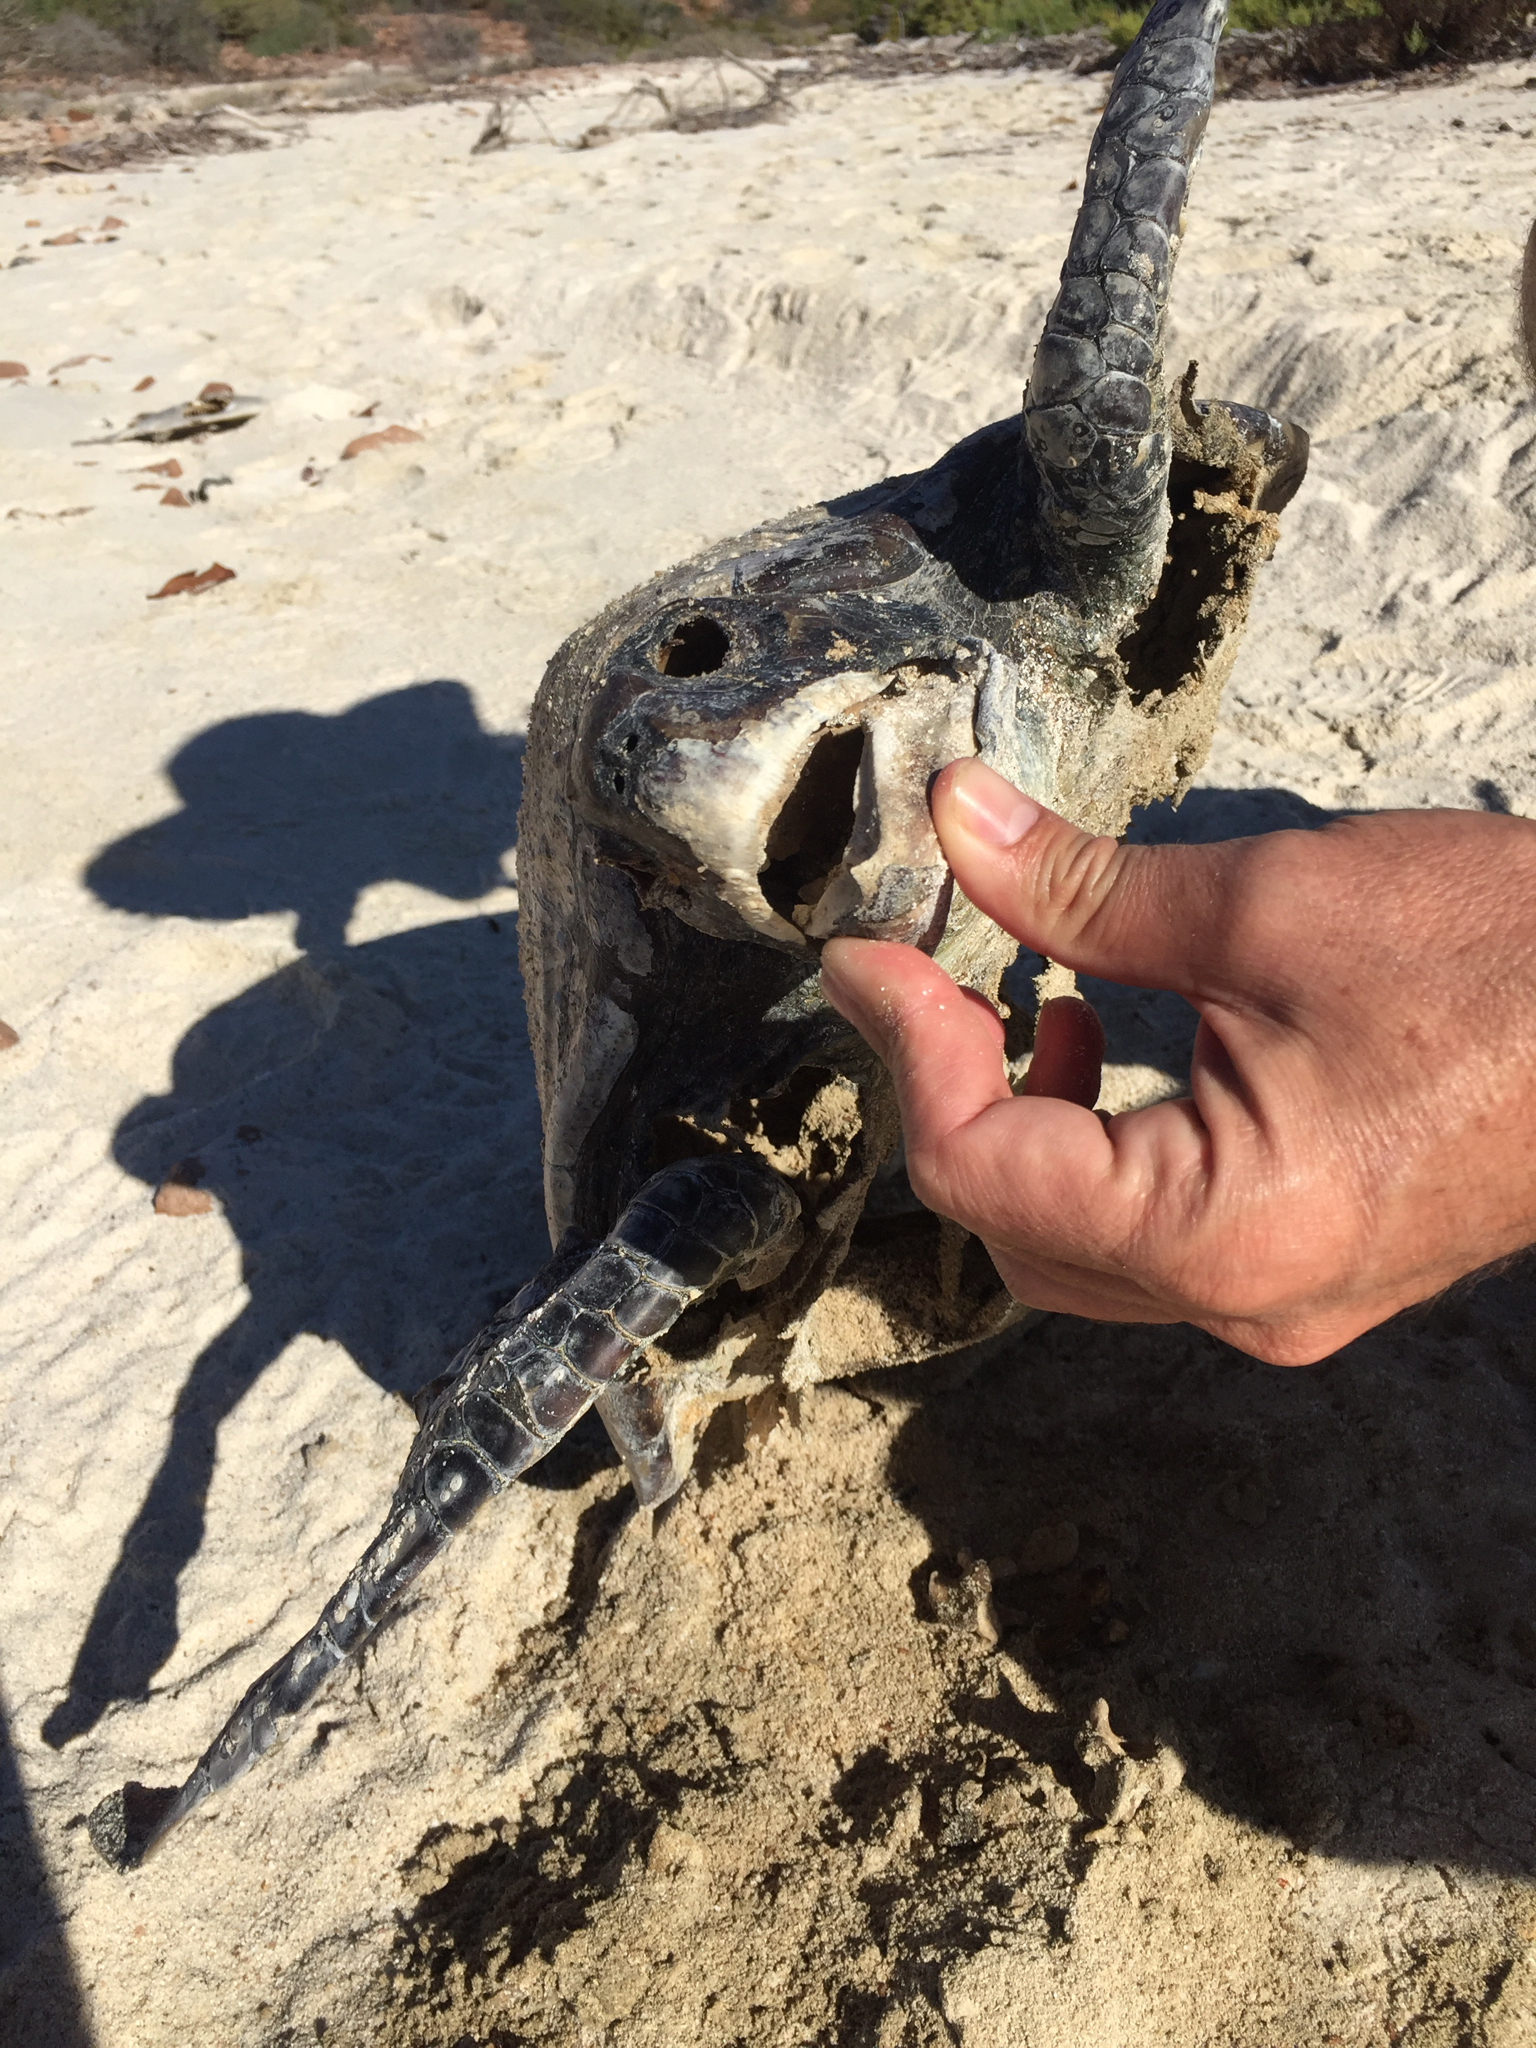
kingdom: Animalia
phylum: Chordata
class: Testudines
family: Cheloniidae
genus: Chelonia
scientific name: Chelonia mydas
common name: Green turtle
